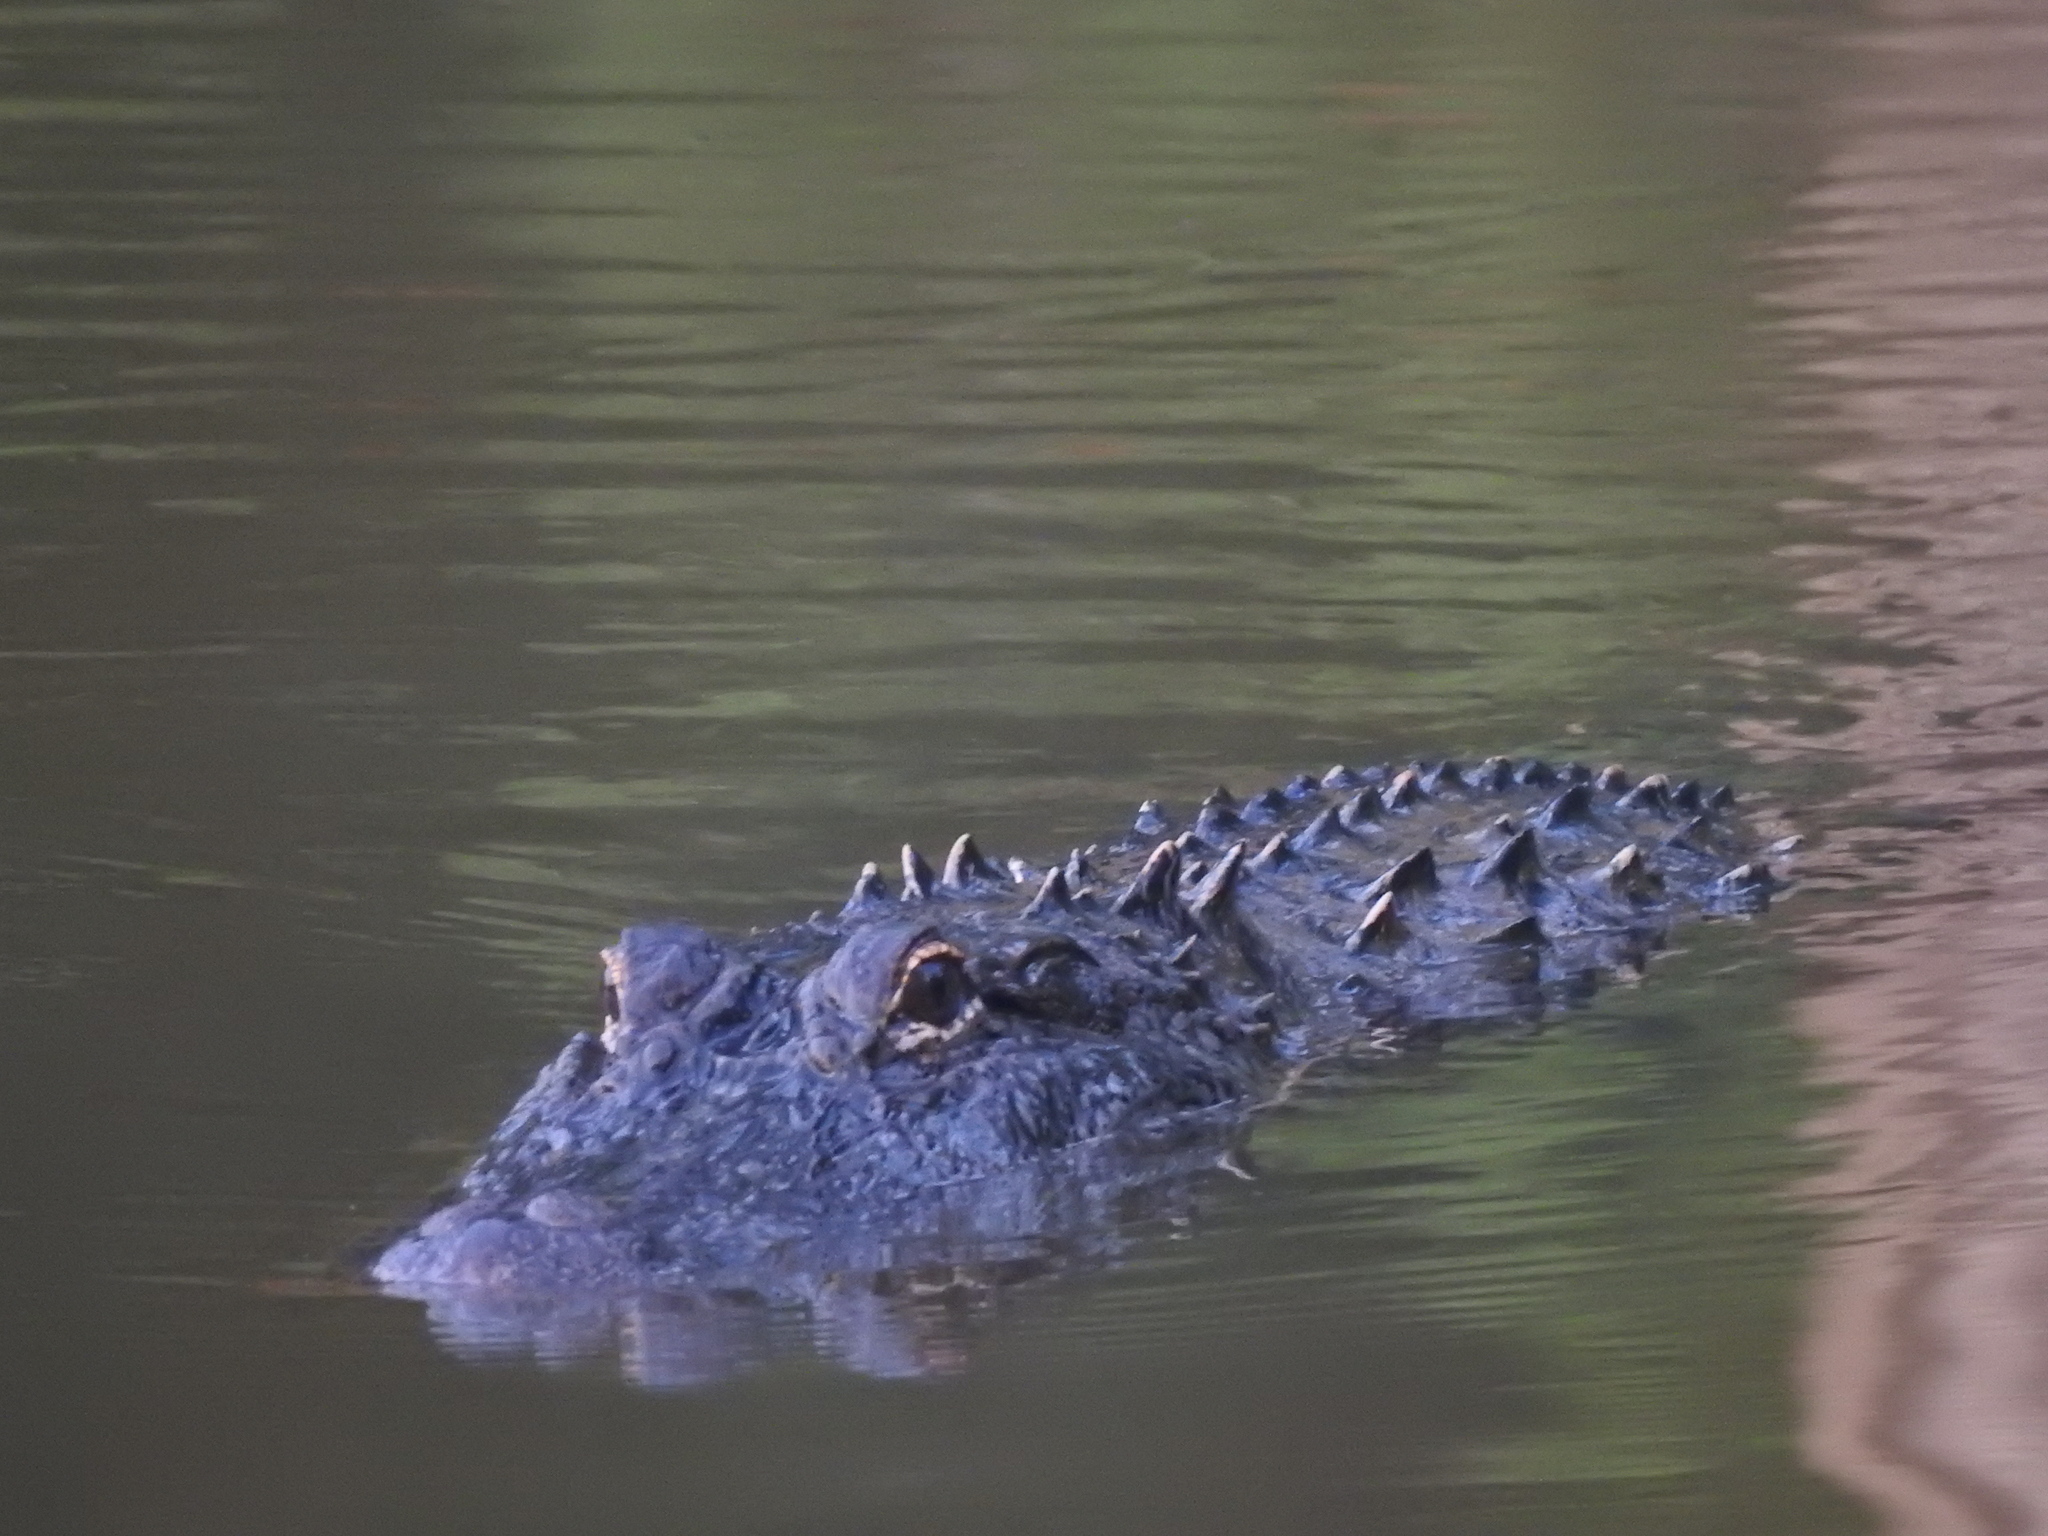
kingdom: Animalia
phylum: Chordata
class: Crocodylia
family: Alligatoridae
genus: Alligator
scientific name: Alligator mississippiensis
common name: American alligator
